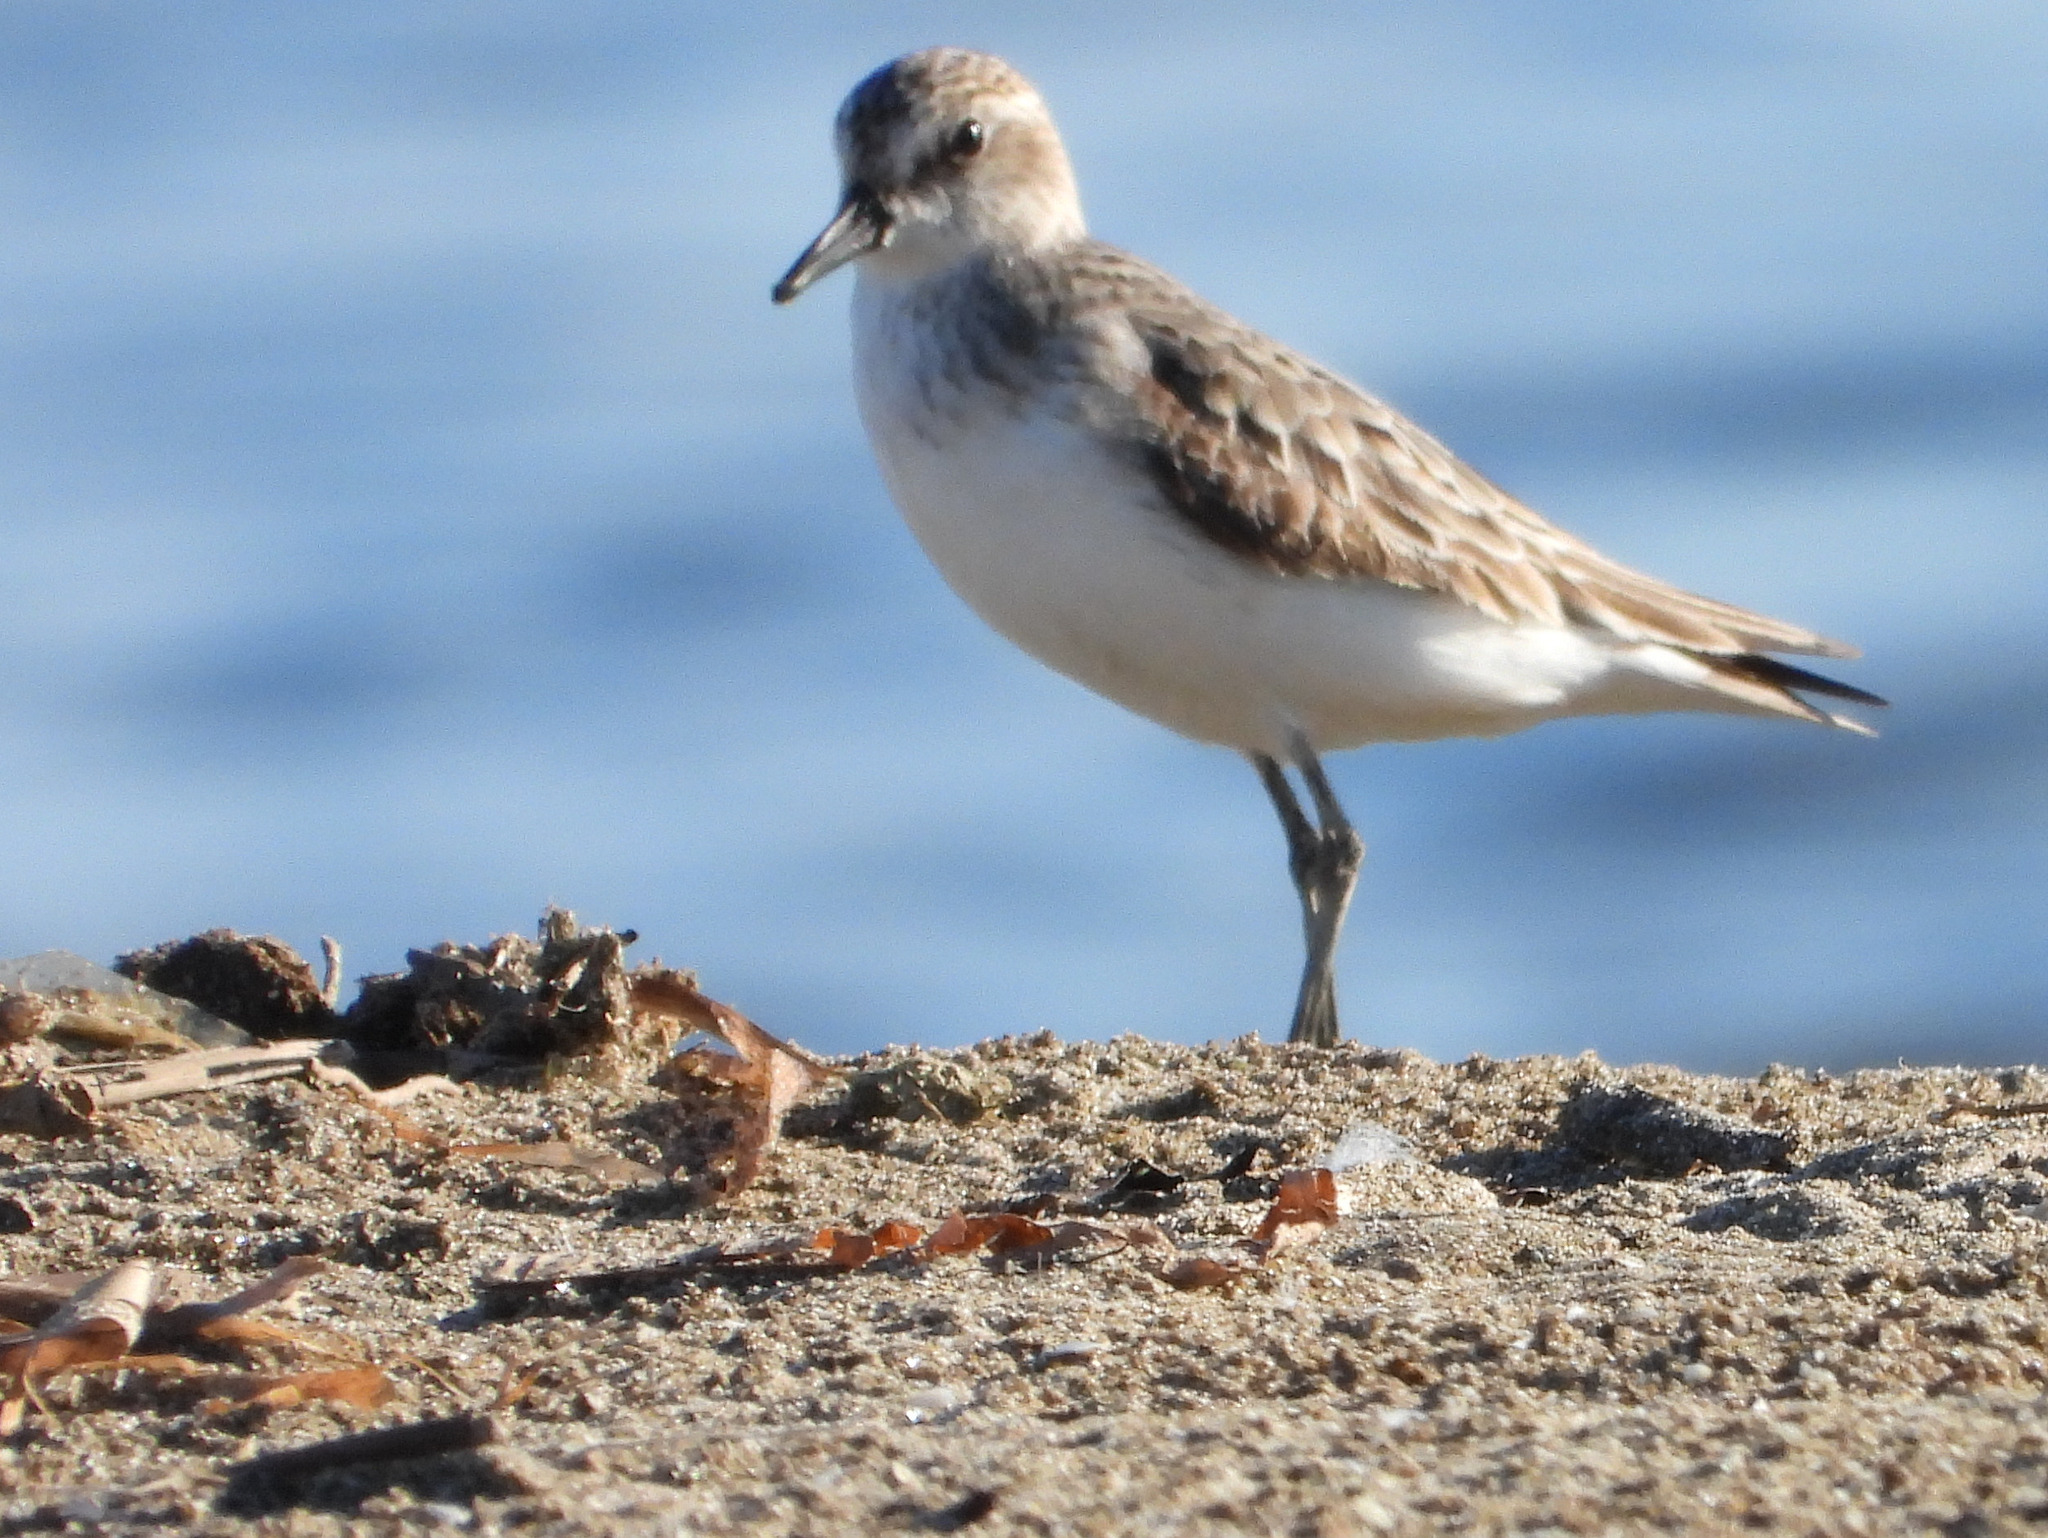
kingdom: Animalia
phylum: Chordata
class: Aves
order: Charadriiformes
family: Scolopacidae
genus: Calidris
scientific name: Calidris pusilla
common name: Semipalmated sandpiper
